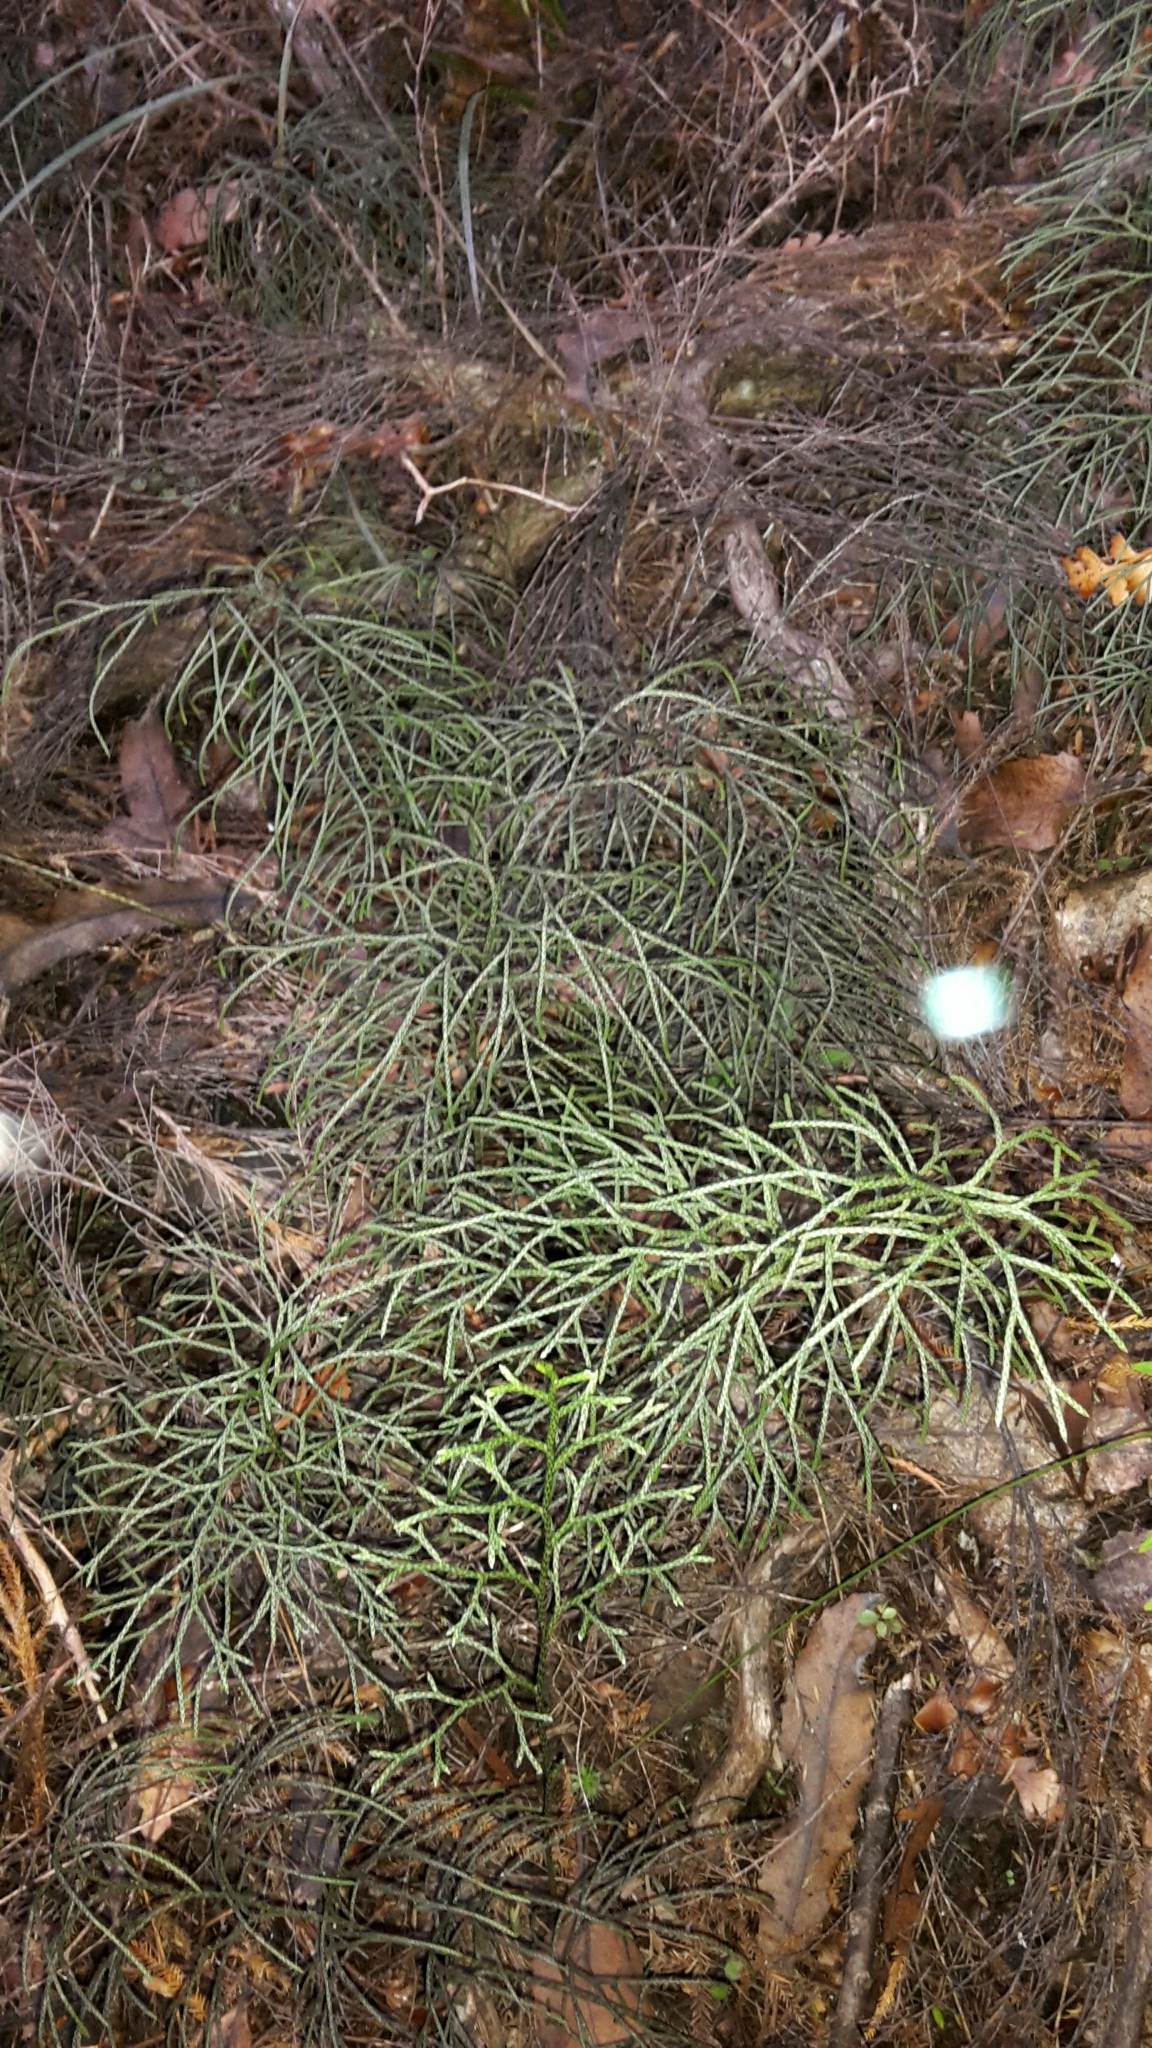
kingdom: Plantae
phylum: Tracheophyta
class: Lycopodiopsida
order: Lycopodiales
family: Lycopodiaceae
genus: Pseudolycopodium
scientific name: Pseudolycopodium densum
